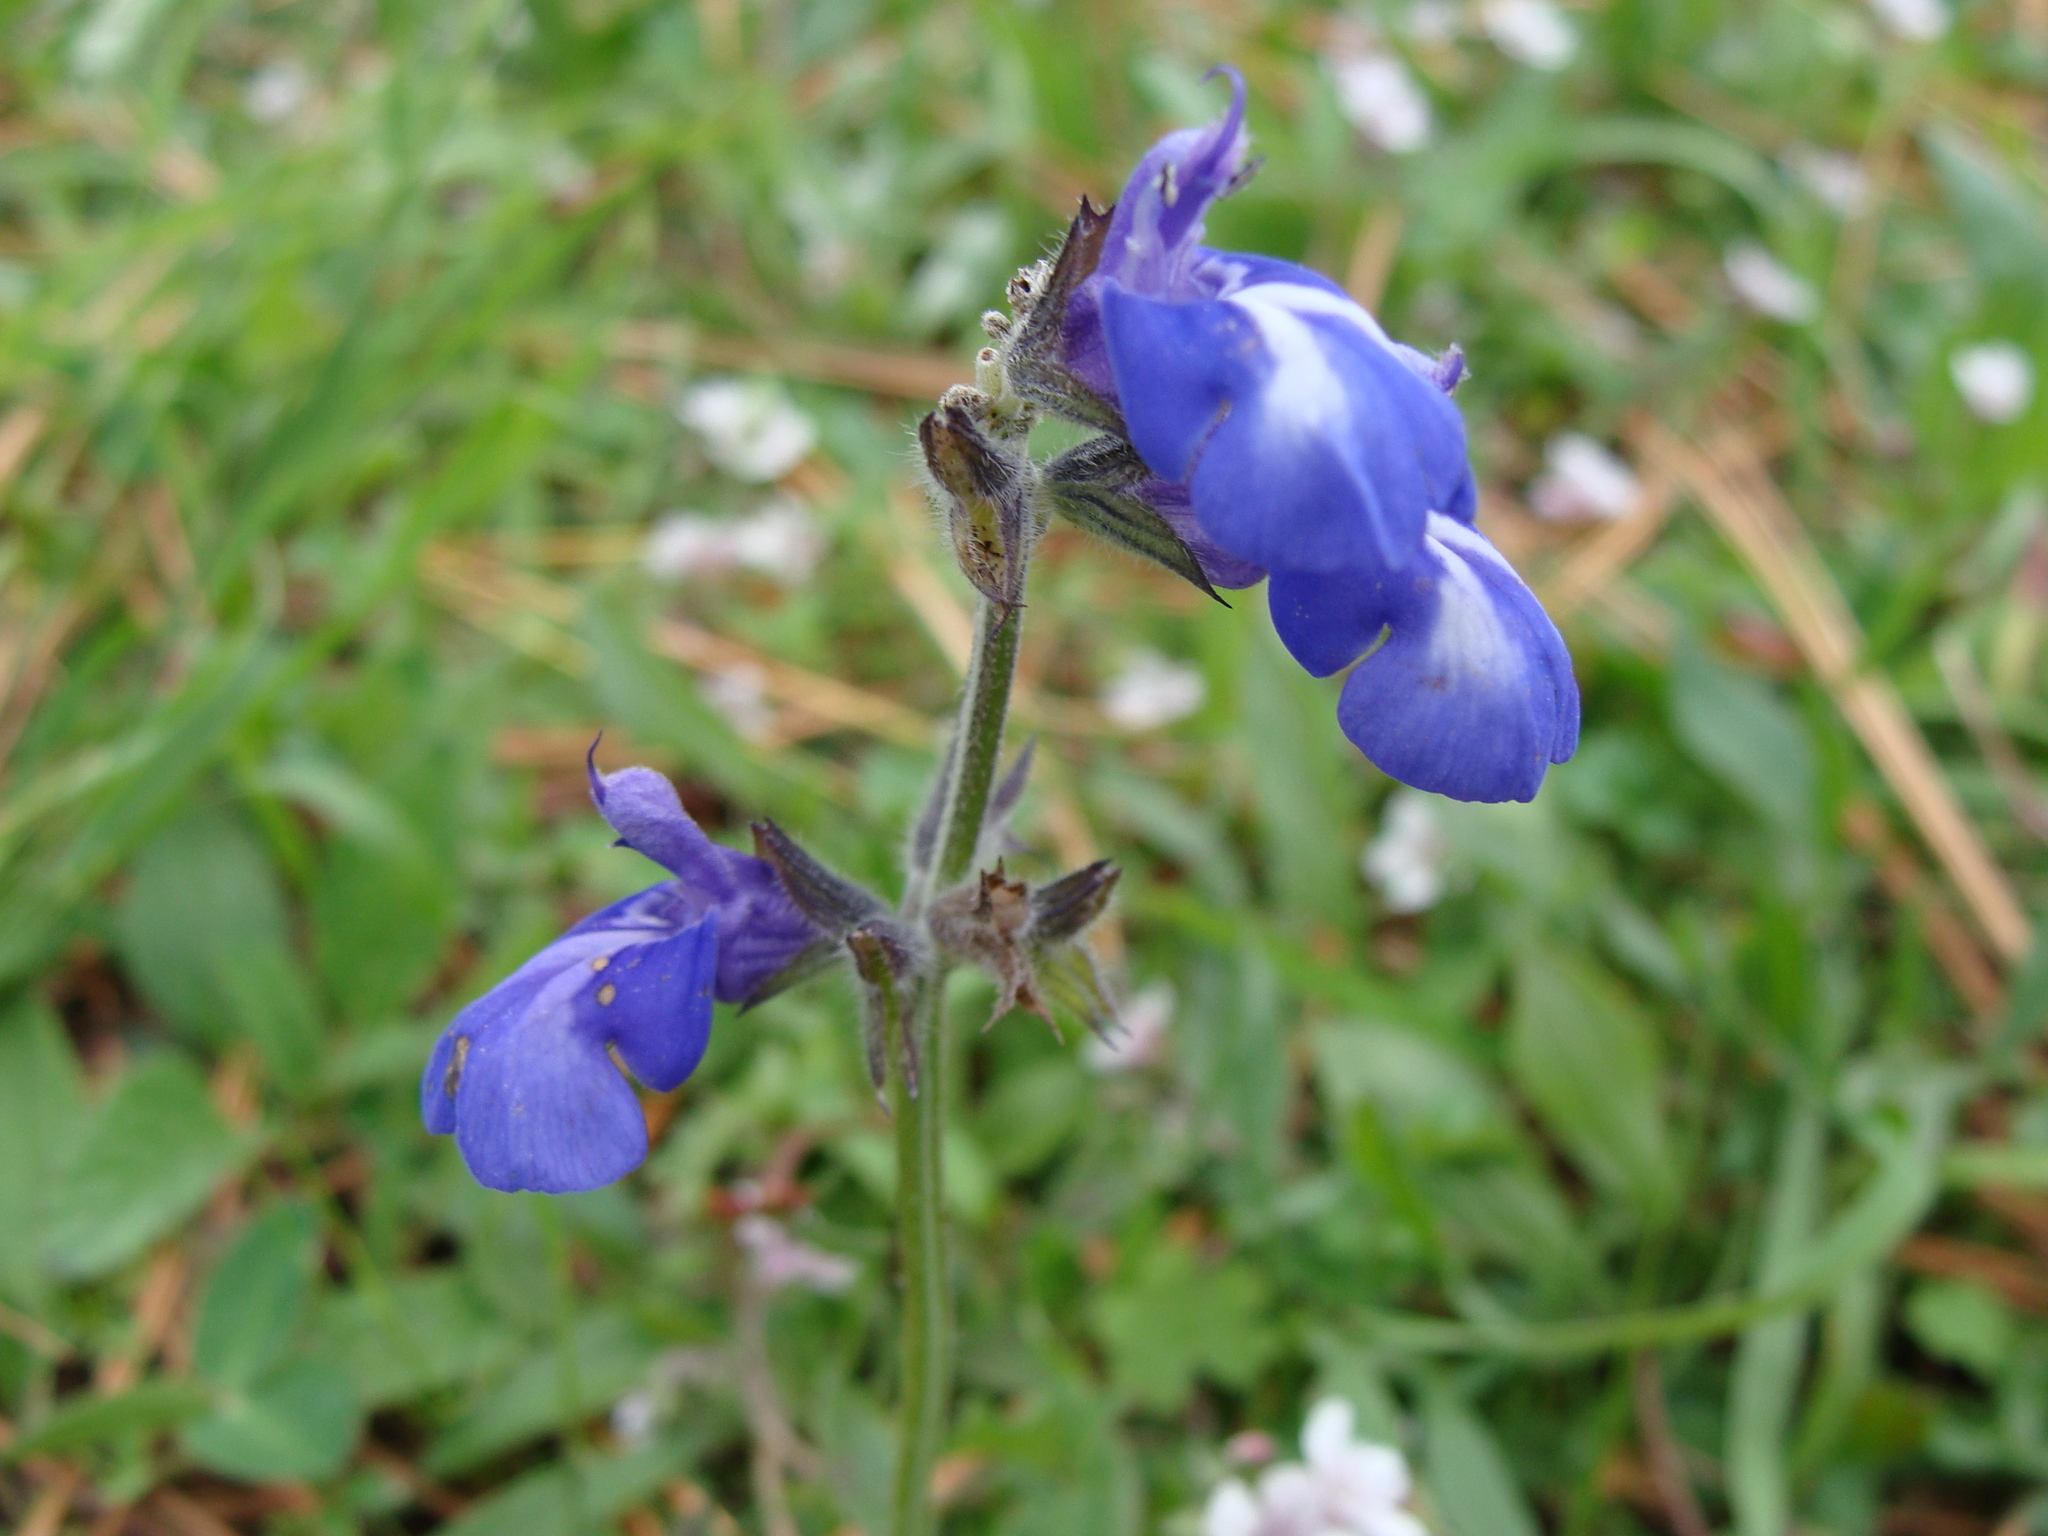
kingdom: Plantae
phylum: Tracheophyta
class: Magnoliopsida
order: Lamiales
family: Lamiaceae
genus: Salvia
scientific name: Salvia prunelloides
